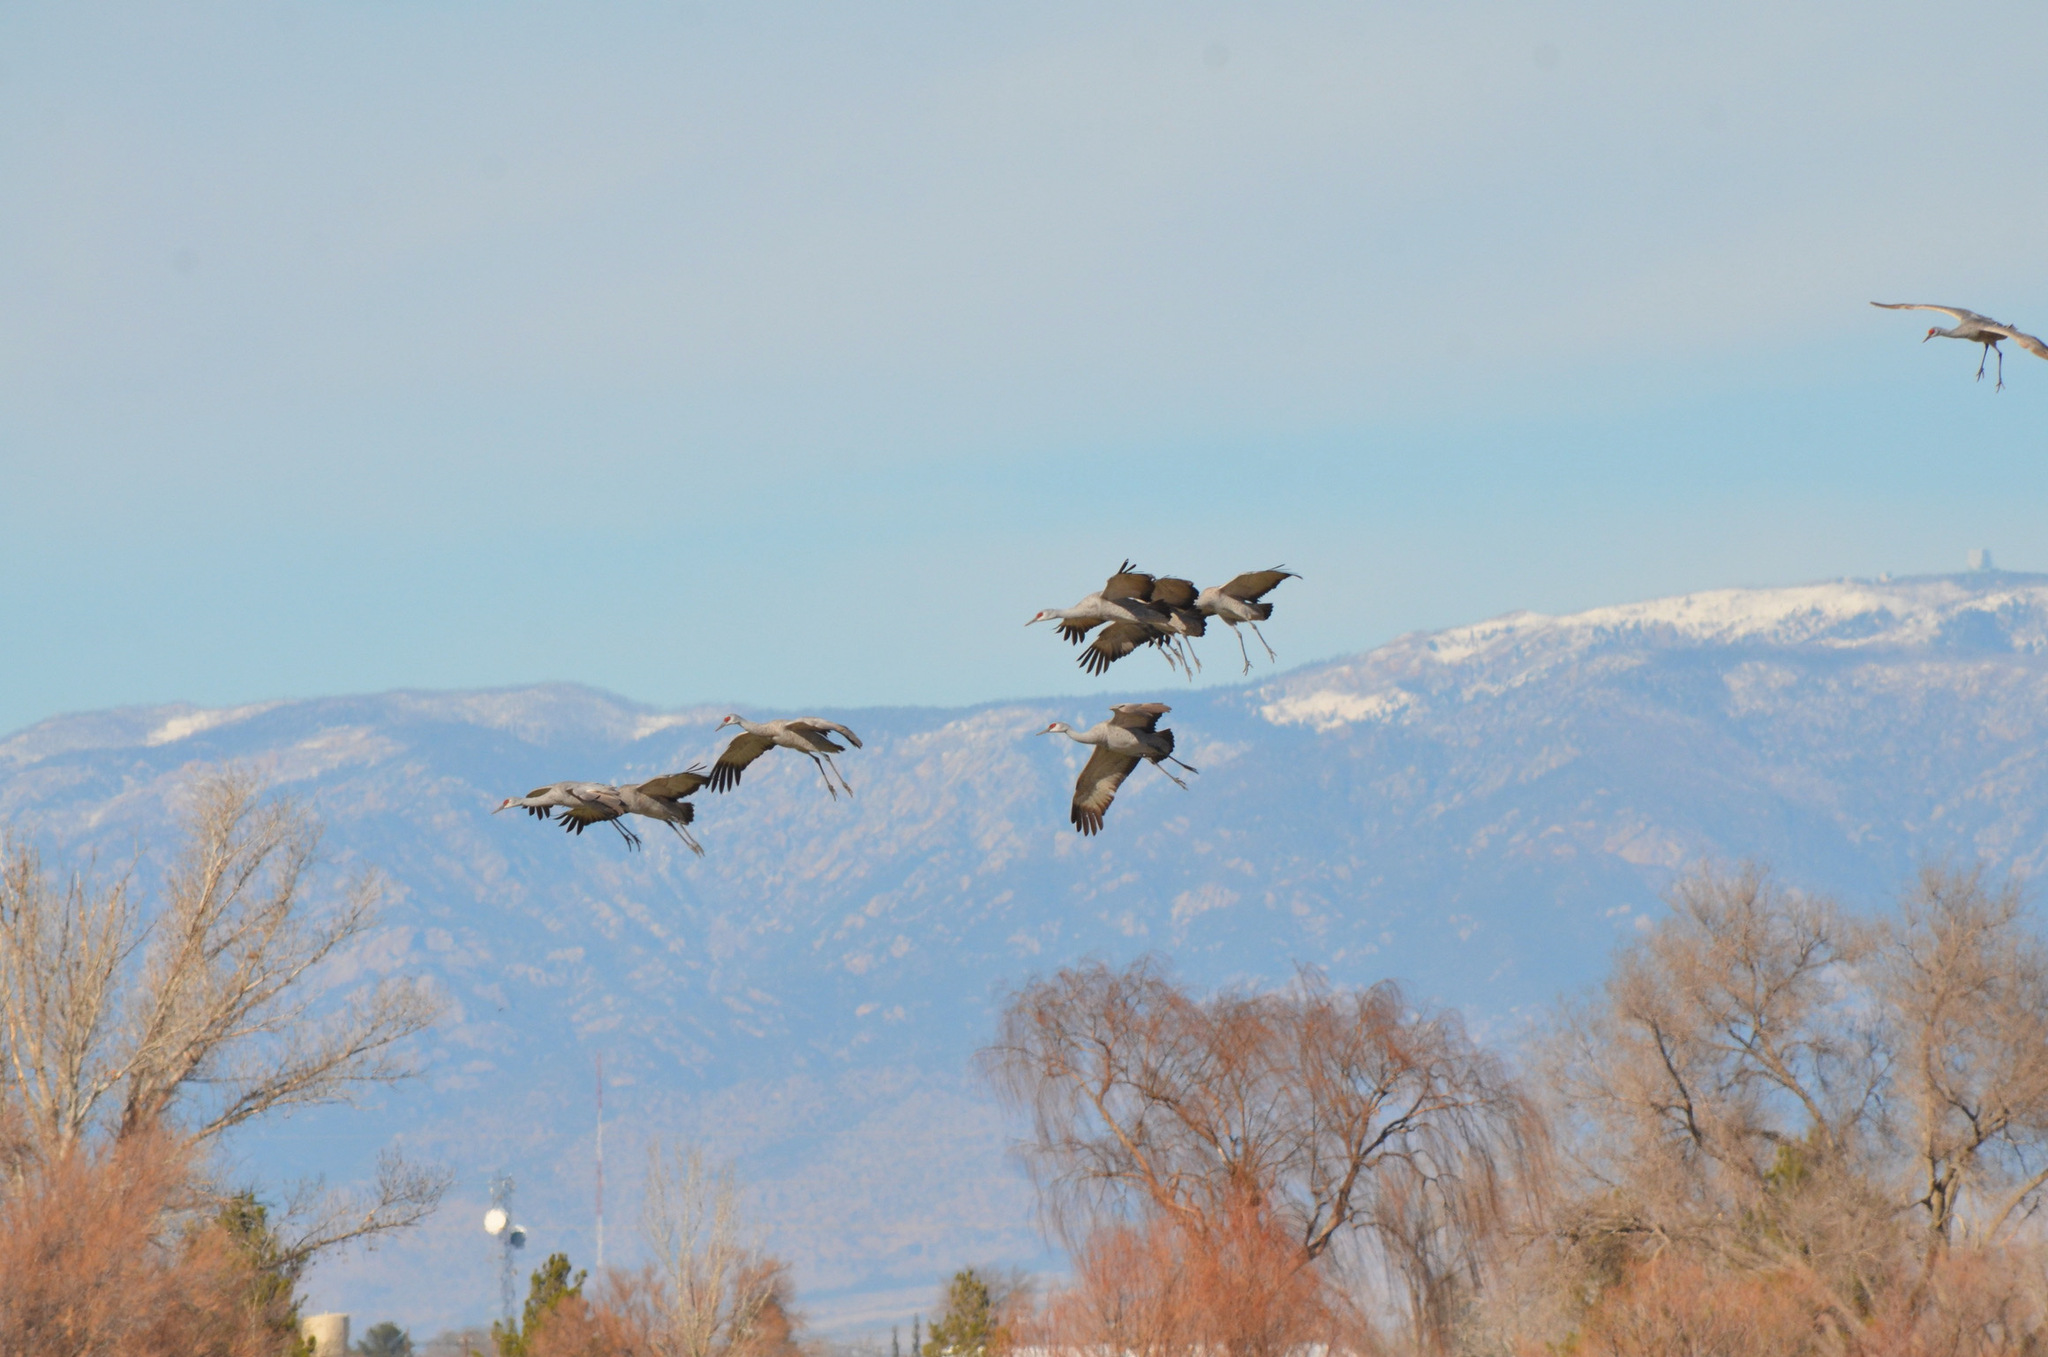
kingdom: Animalia
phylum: Chordata
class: Aves
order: Gruiformes
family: Gruidae
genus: Grus
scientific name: Grus canadensis
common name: Sandhill crane
